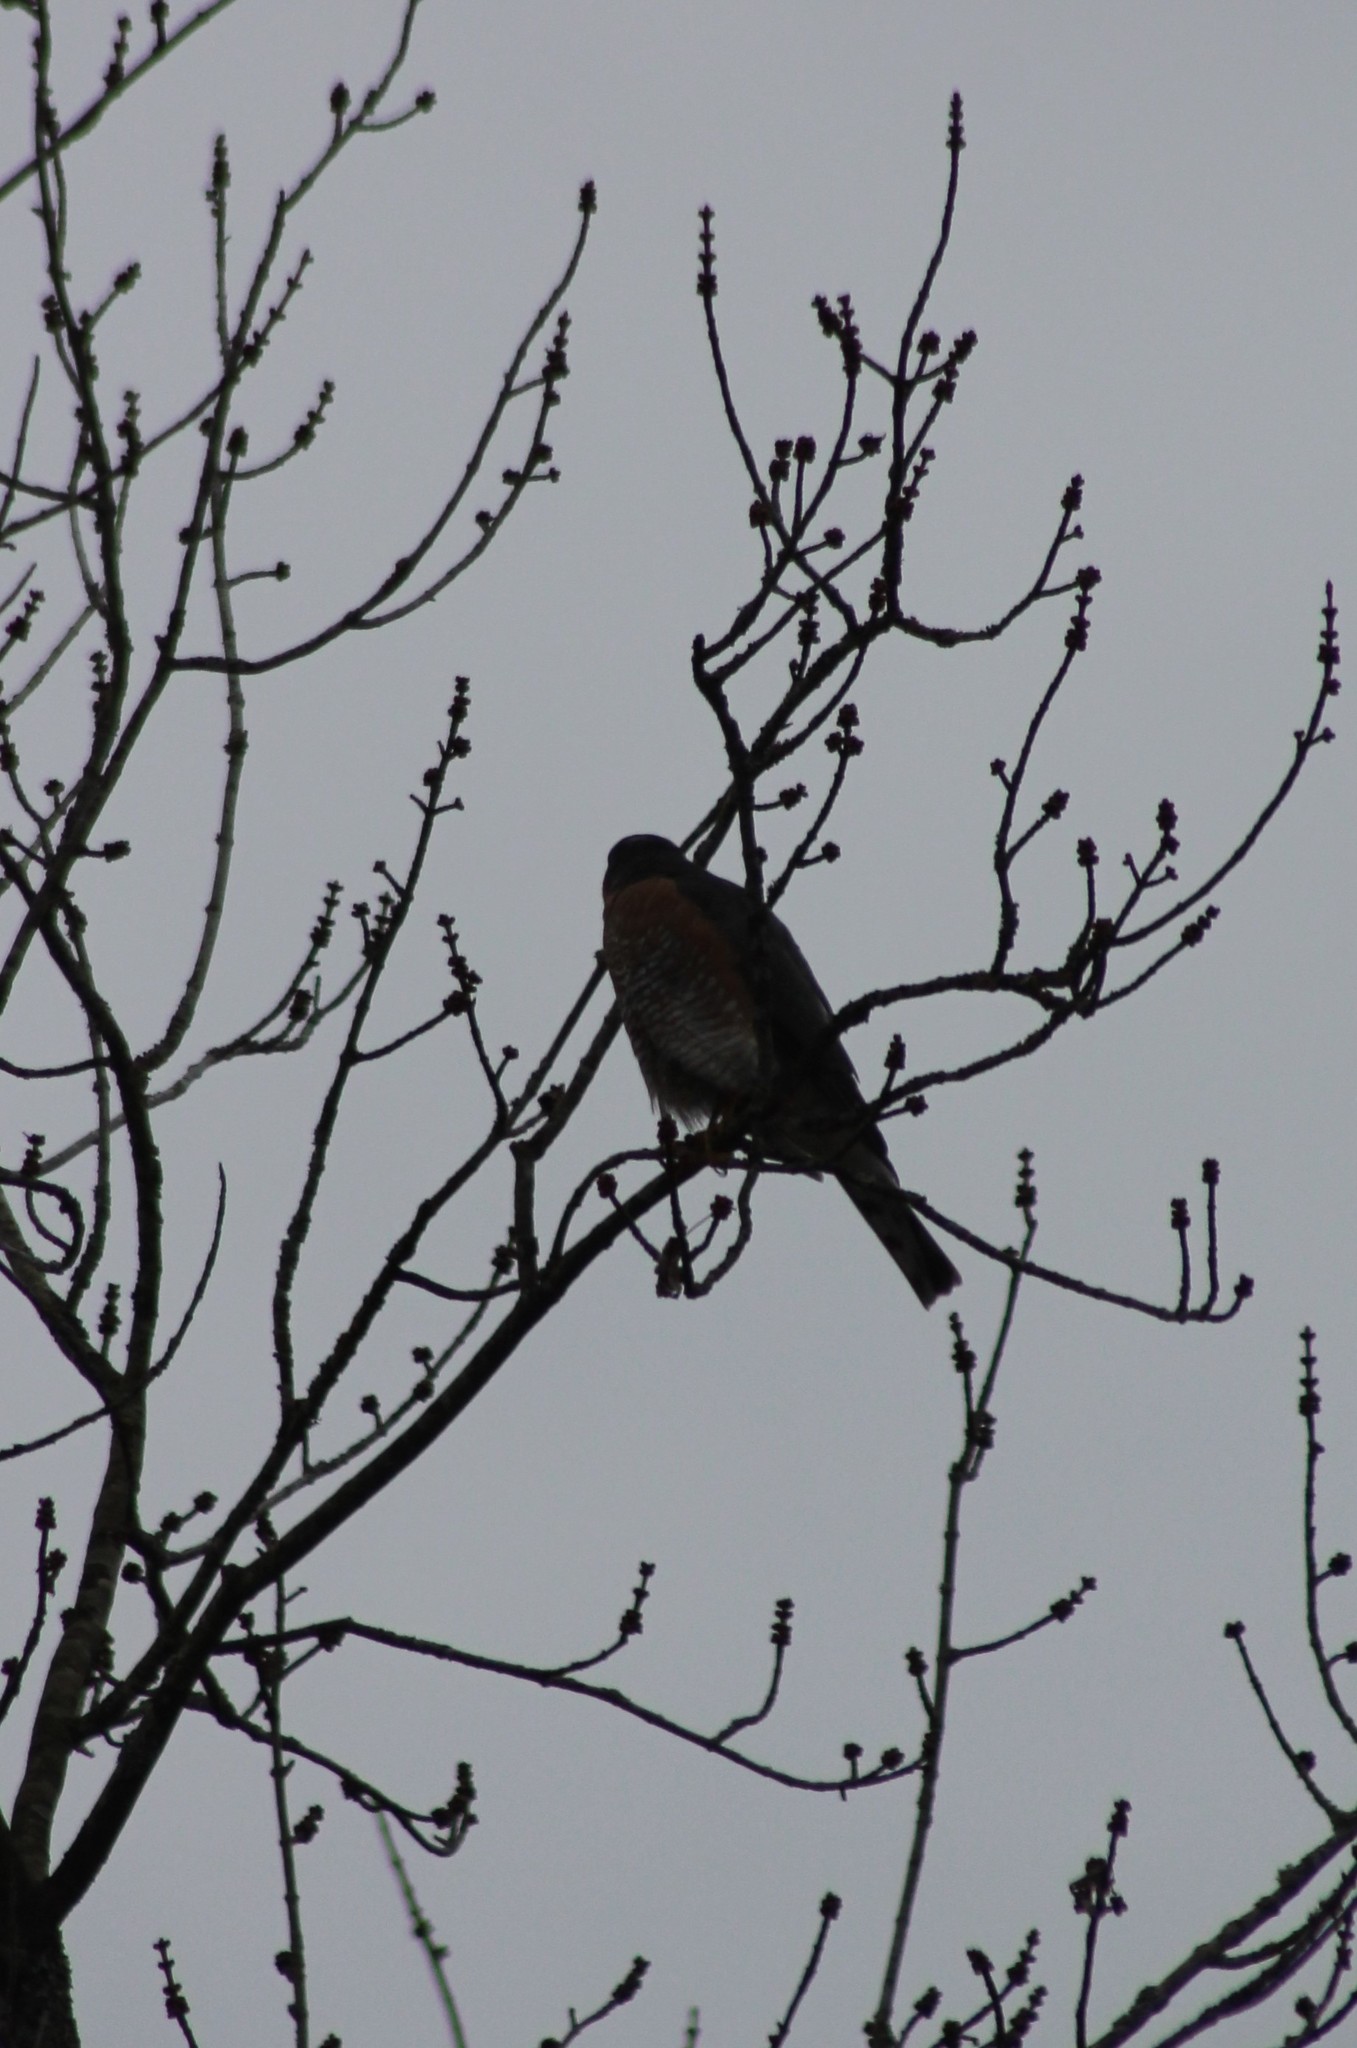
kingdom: Animalia
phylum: Chordata
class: Aves
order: Accipitriformes
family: Accipitridae
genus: Accipiter
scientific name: Accipiter nisus
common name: Eurasian sparrowhawk
